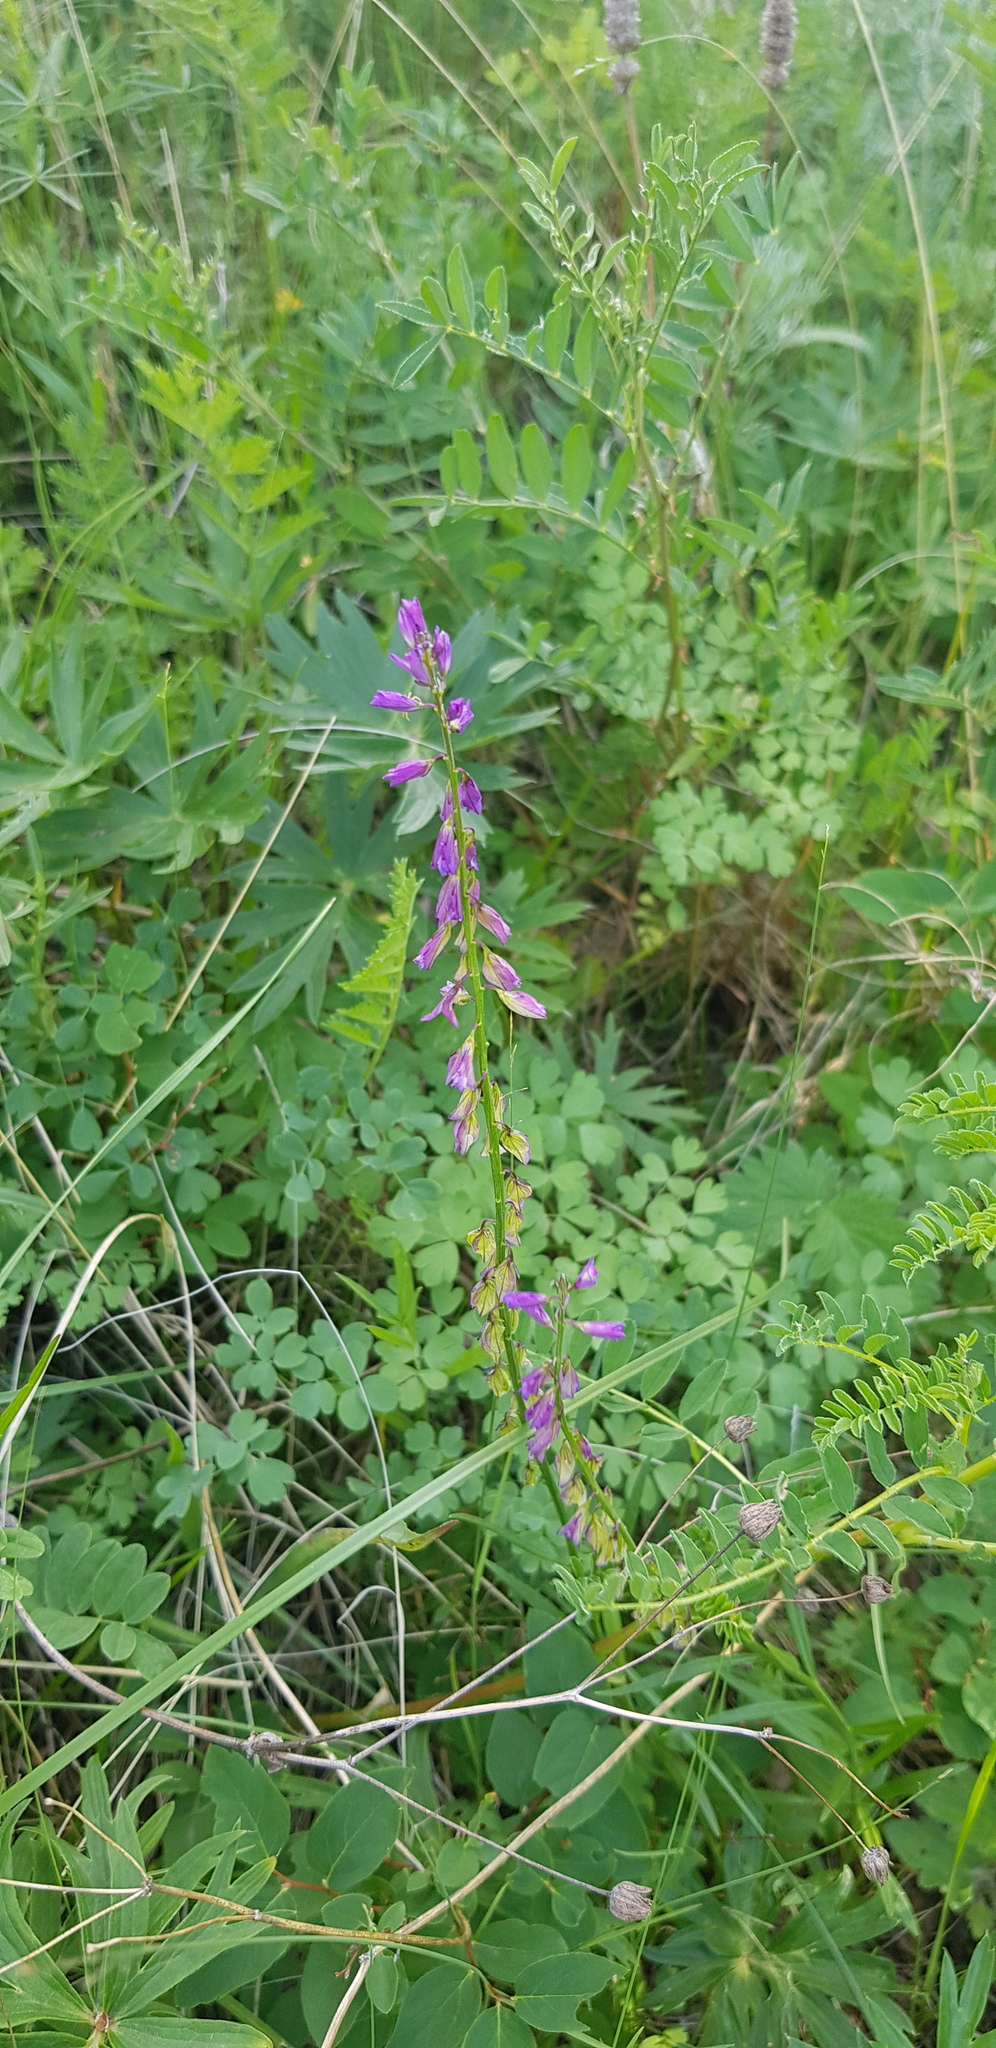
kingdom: Plantae
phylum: Tracheophyta
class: Magnoliopsida
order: Fabales
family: Polygalaceae
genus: Polygala
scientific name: Polygala comosa
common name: Tufted milkwort
